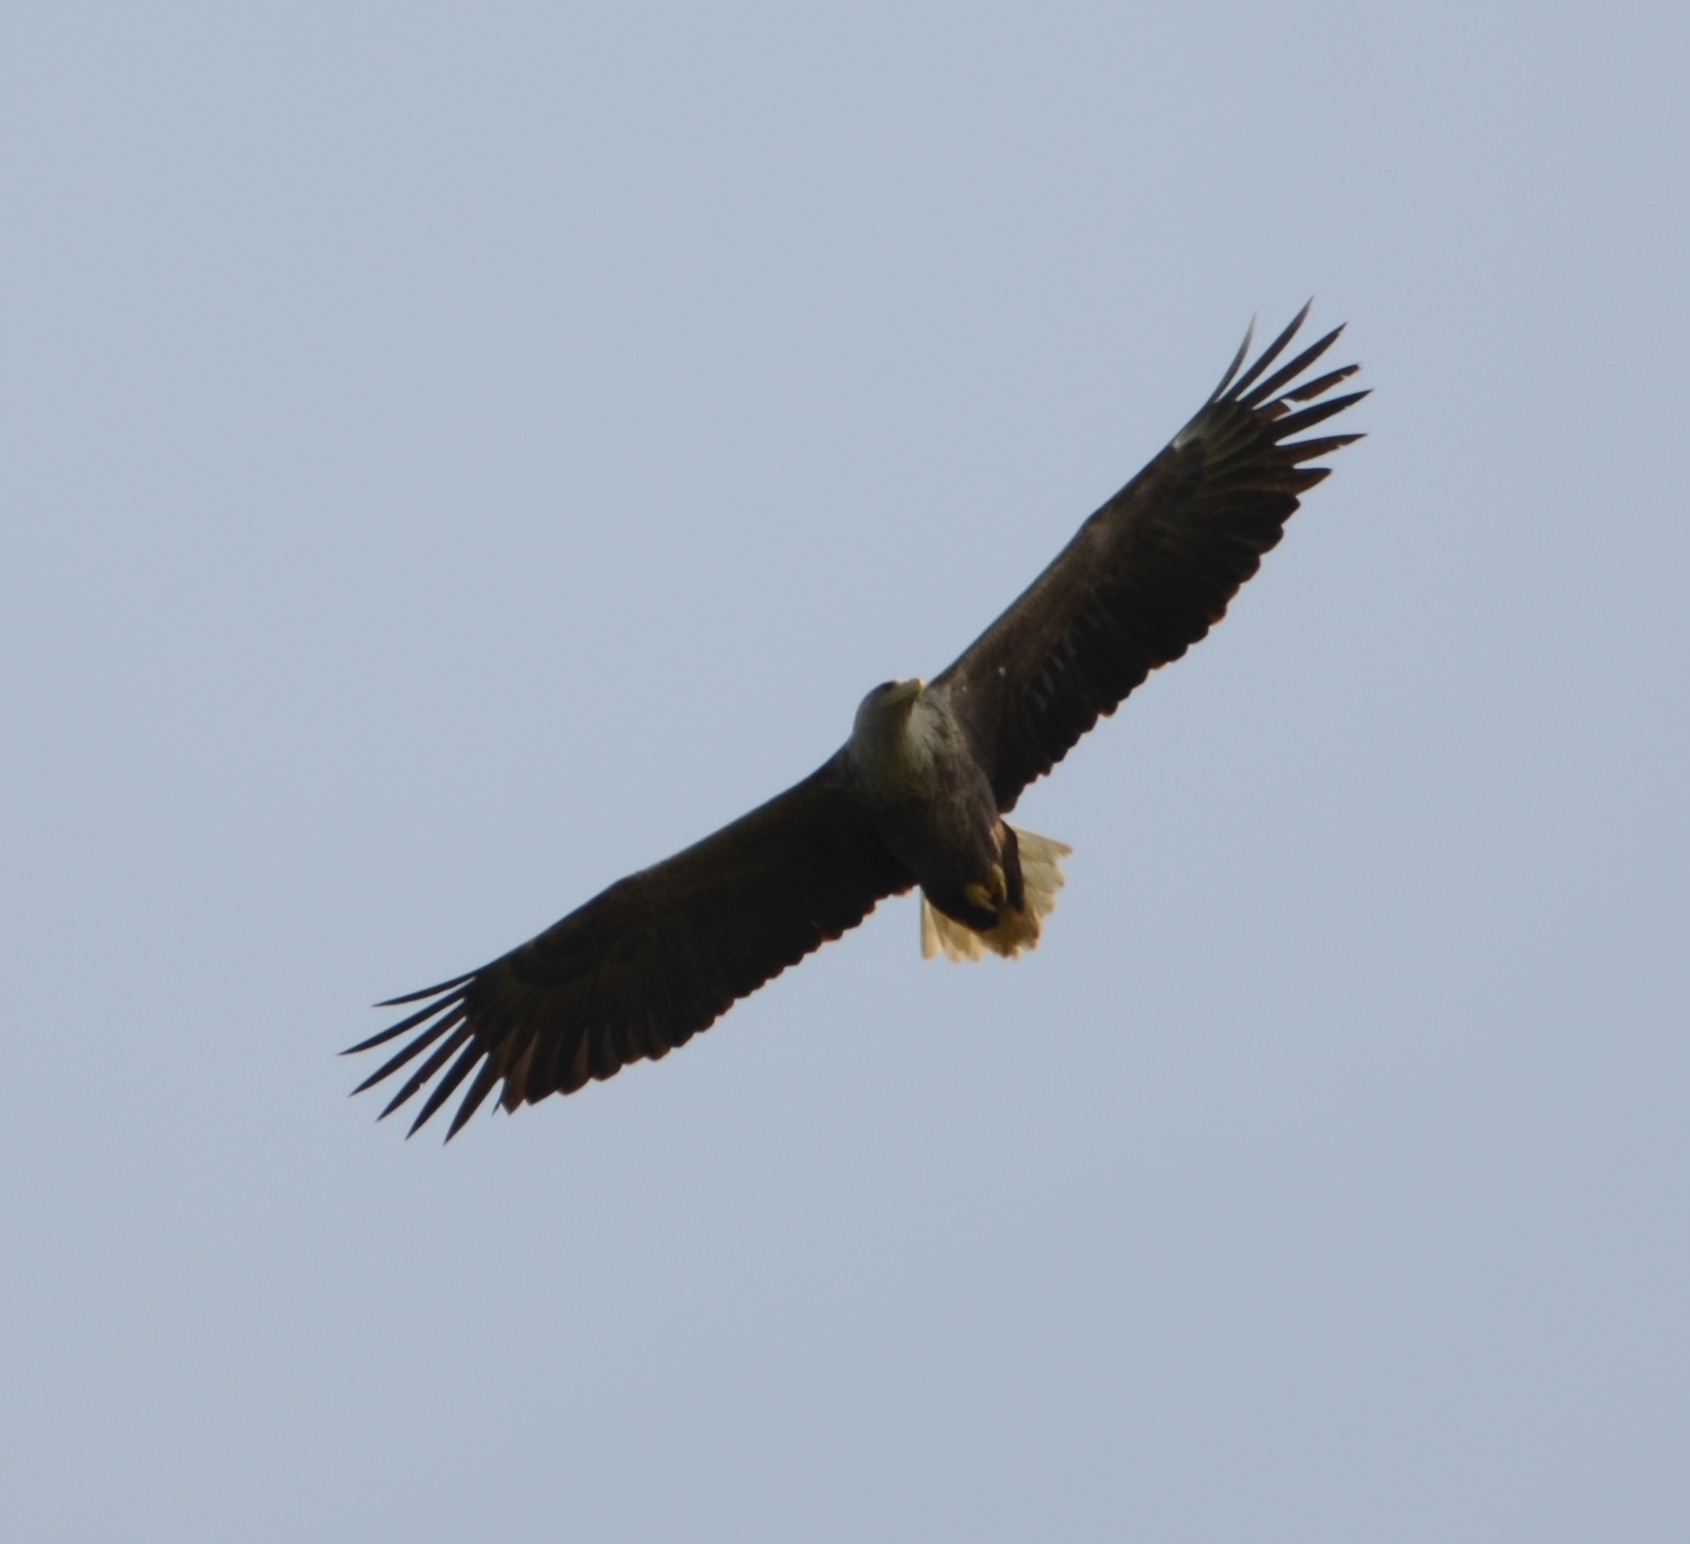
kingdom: Animalia
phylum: Chordata
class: Aves
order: Accipitriformes
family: Accipitridae
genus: Haliaeetus
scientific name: Haliaeetus albicilla
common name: White-tailed eagle
